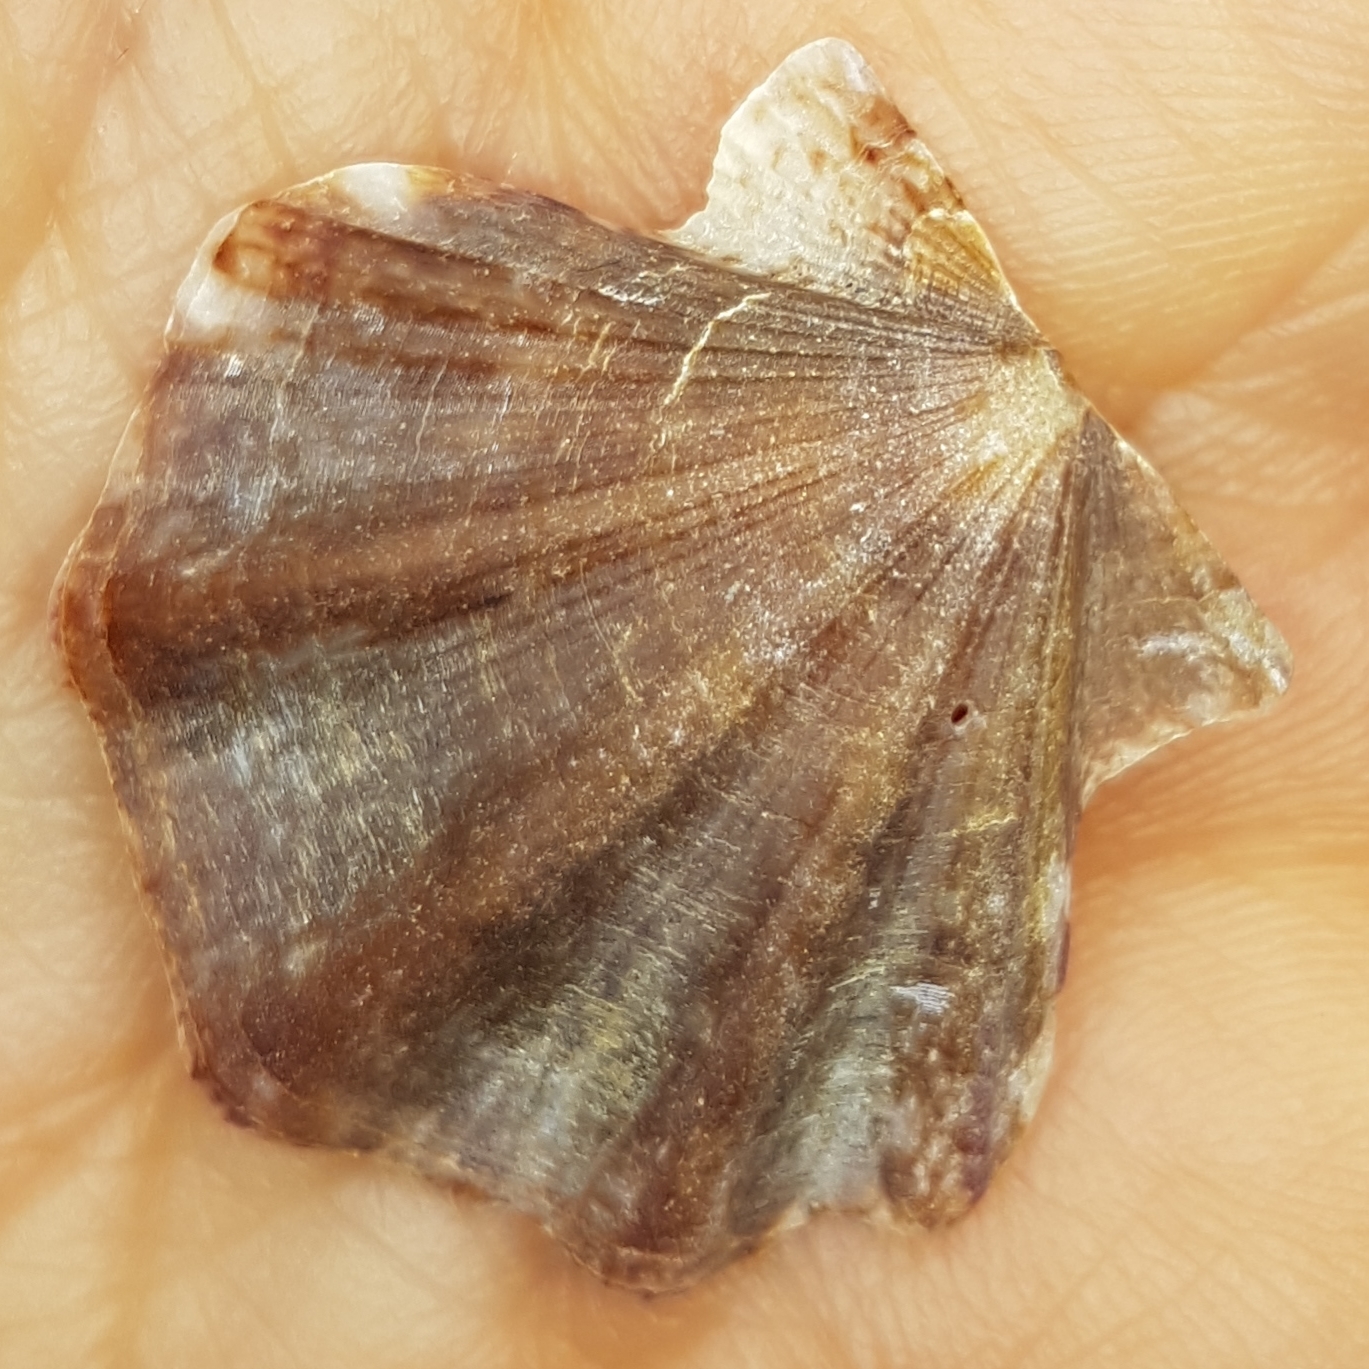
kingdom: Animalia
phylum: Mollusca
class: Bivalvia
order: Pectinida
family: Pectinidae
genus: Flexopecten
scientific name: Flexopecten flexuosus
